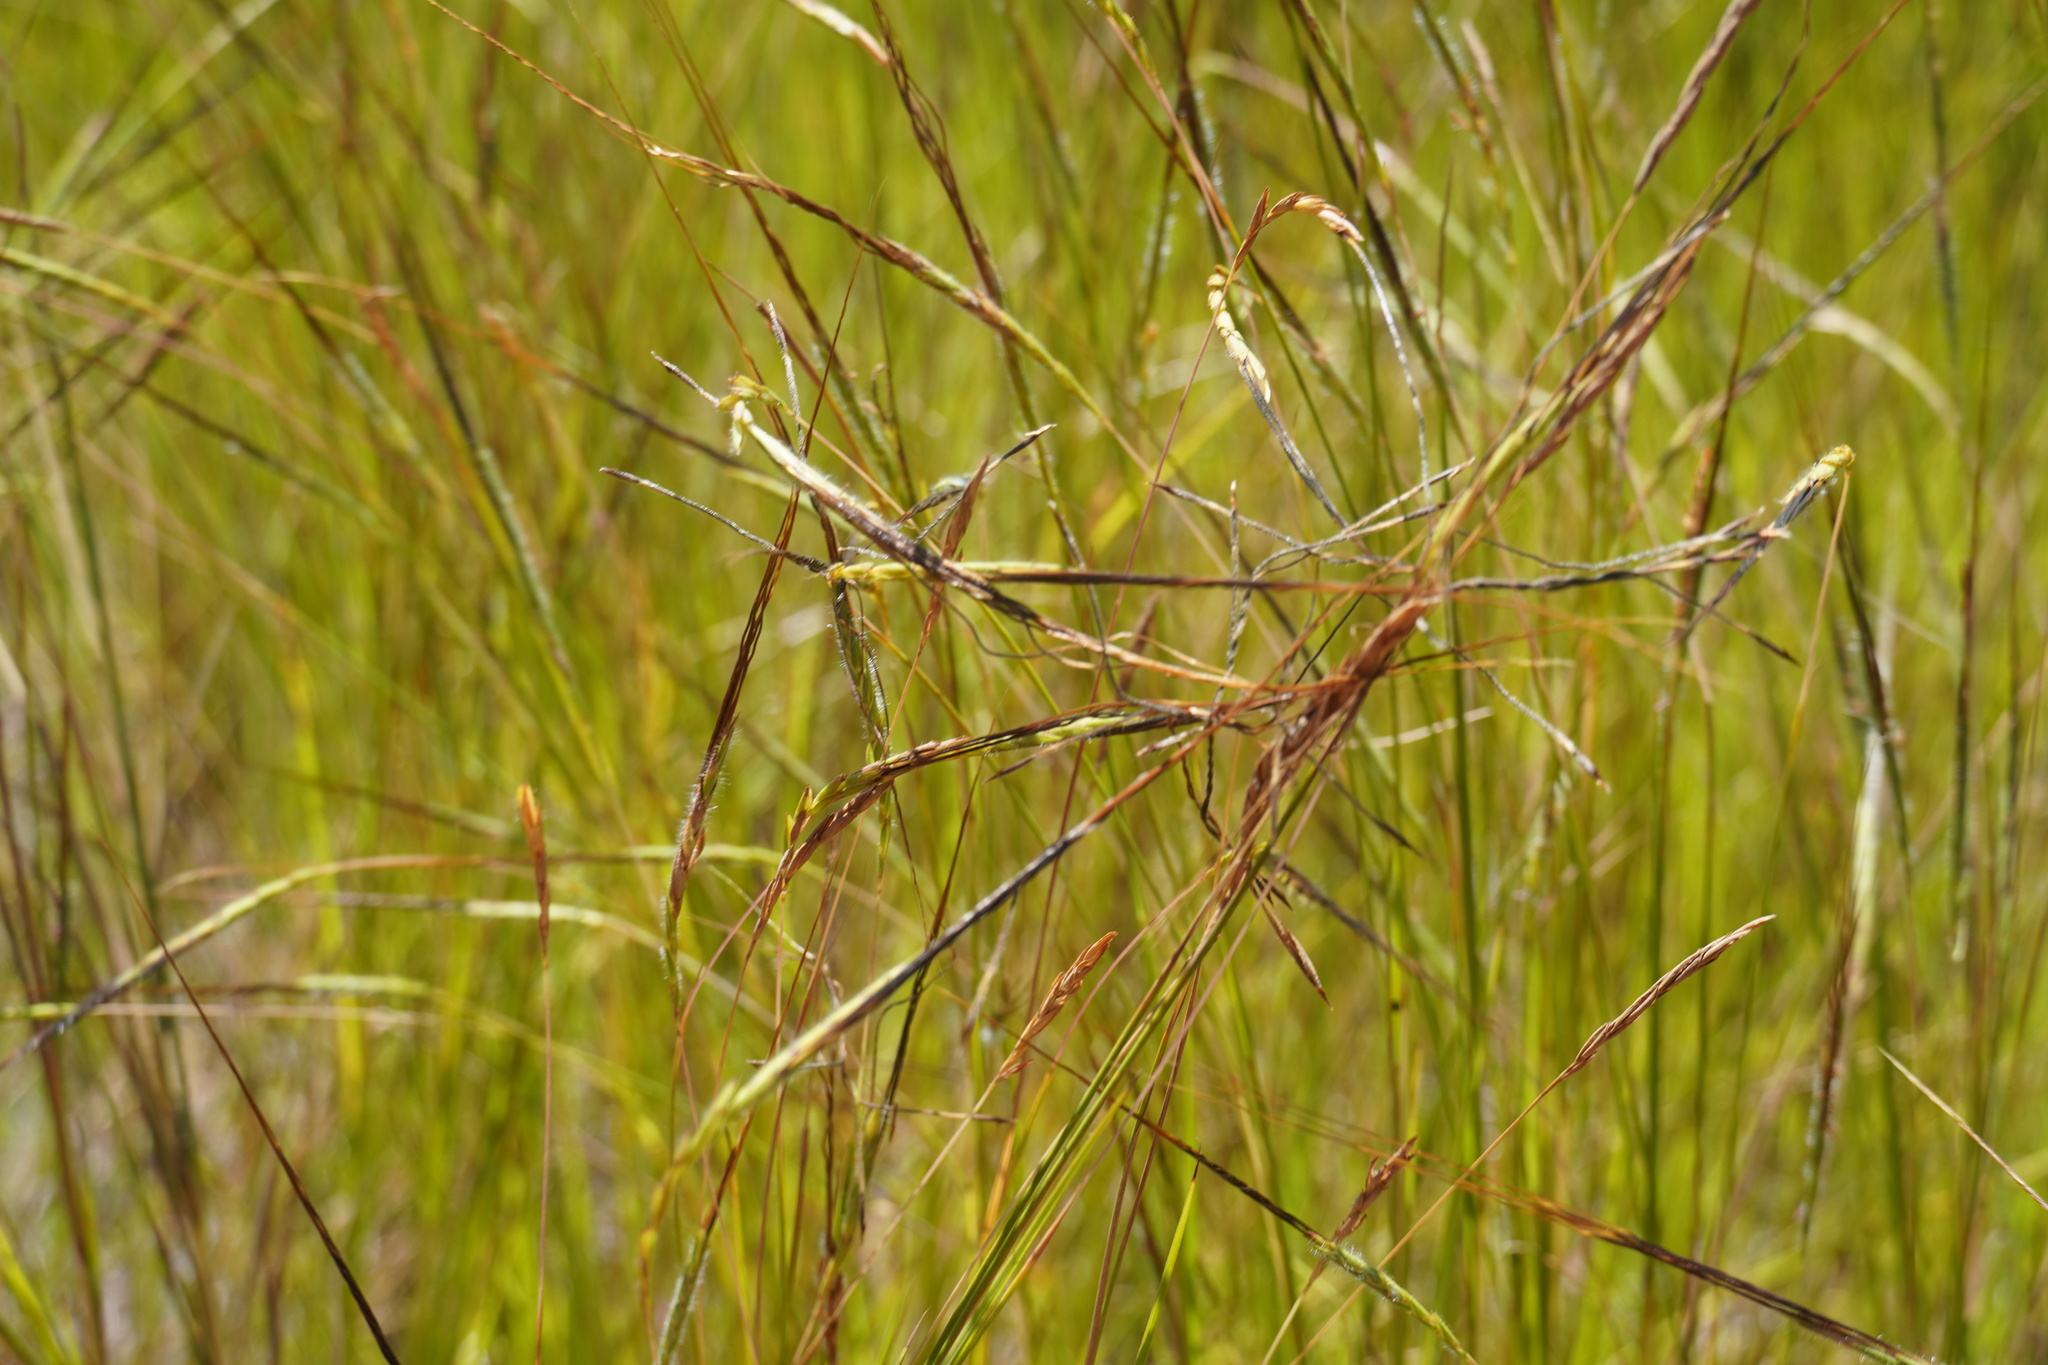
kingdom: Plantae
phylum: Tracheophyta
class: Liliopsida
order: Poales
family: Poaceae
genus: Heteropogon
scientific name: Heteropogon contortus
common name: Tanglehead
